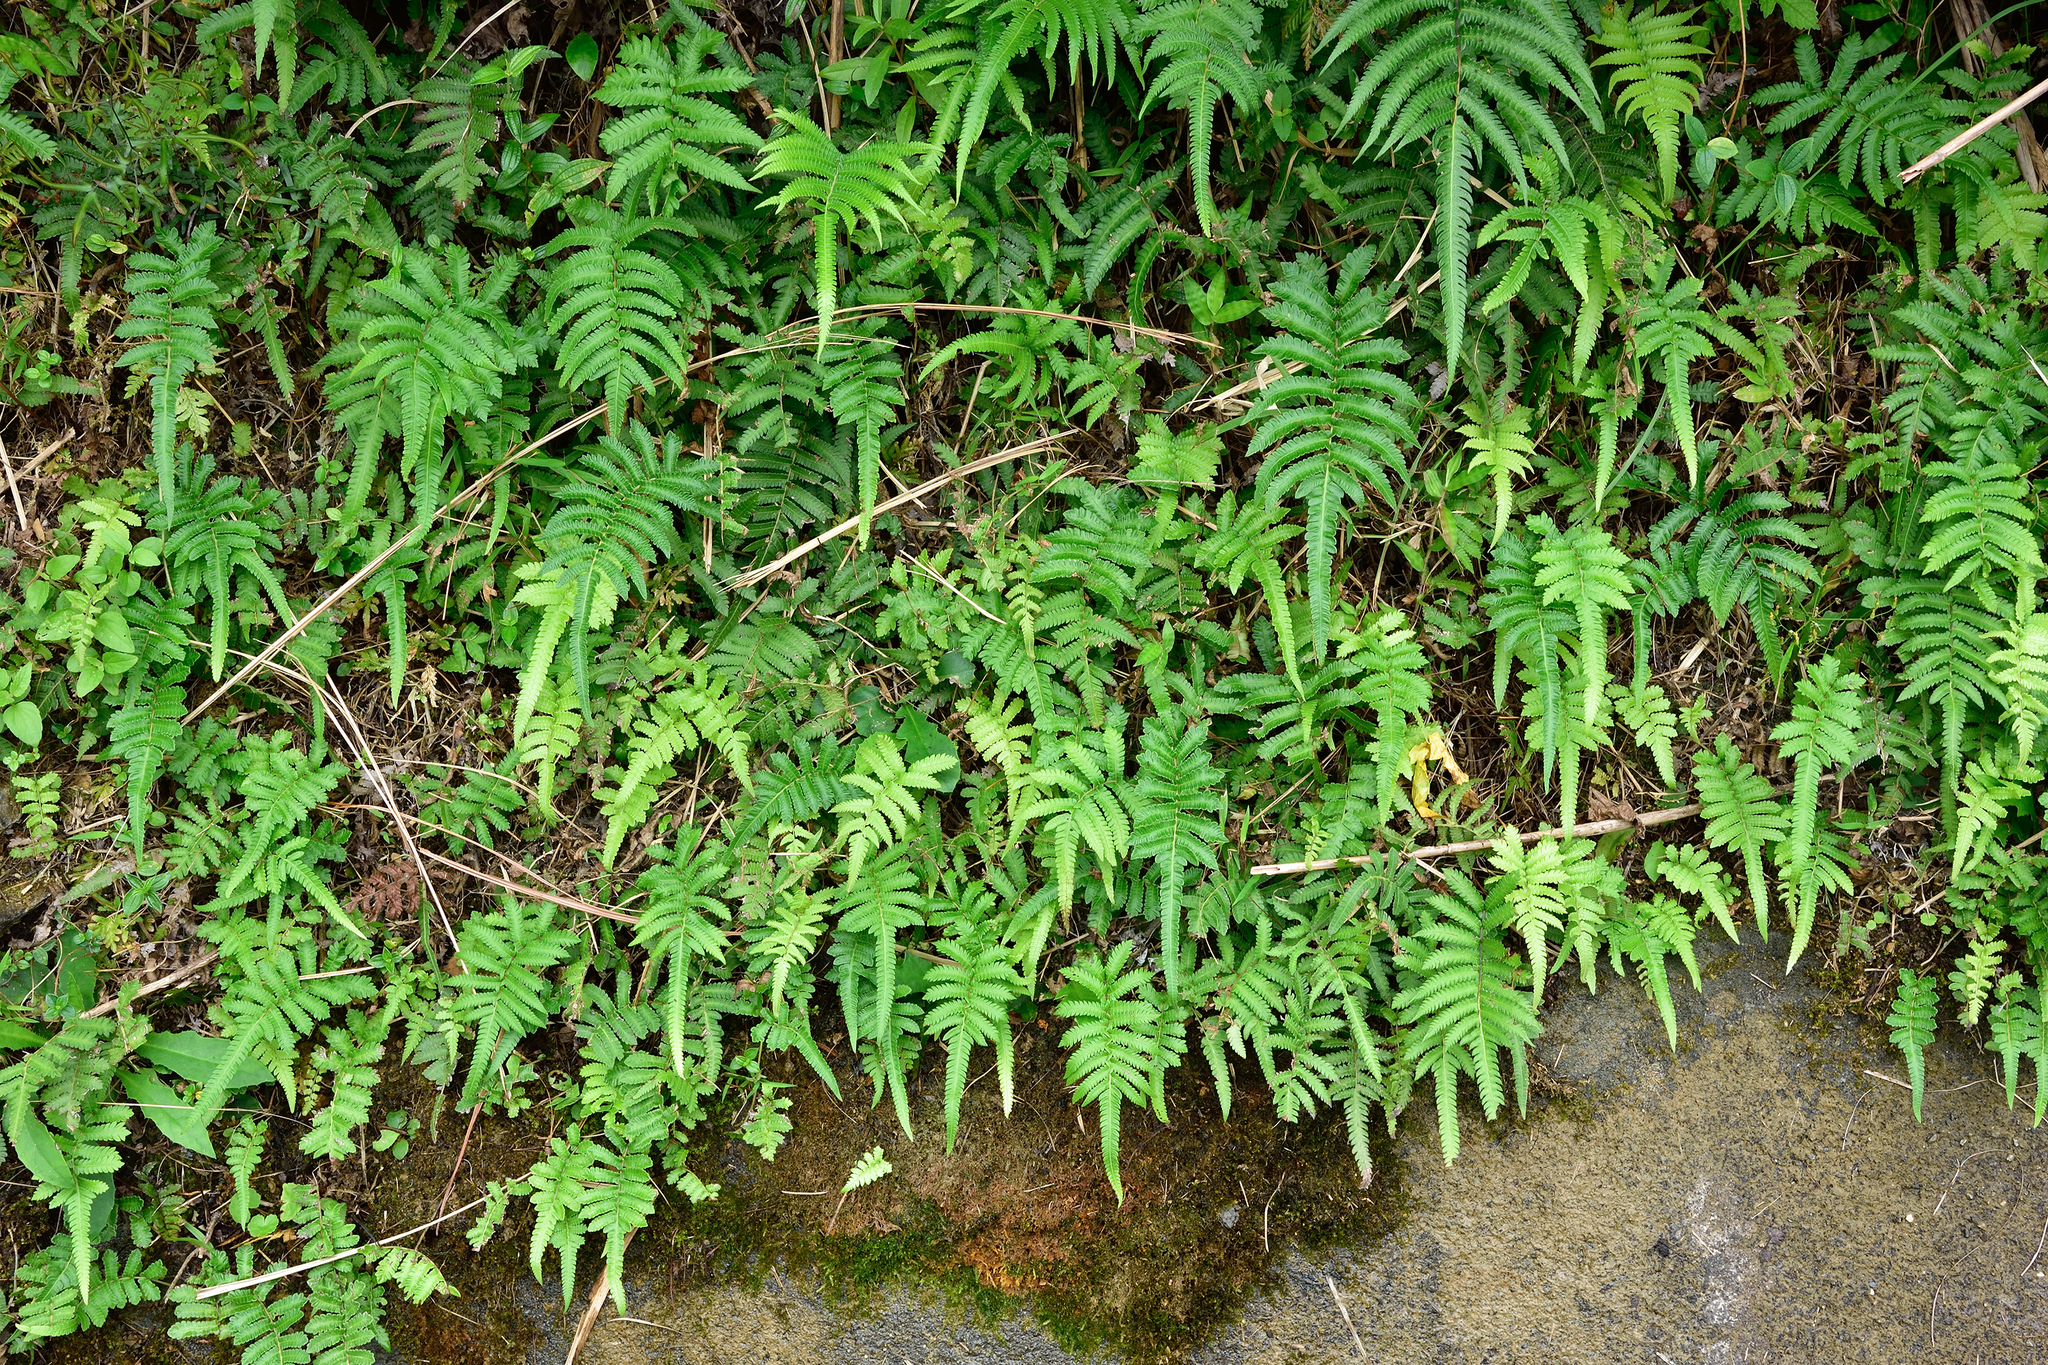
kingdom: Plantae
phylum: Tracheophyta
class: Polypodiopsida
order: Polypodiales
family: Thelypteridaceae
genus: Christella
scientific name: Christella acuminata
